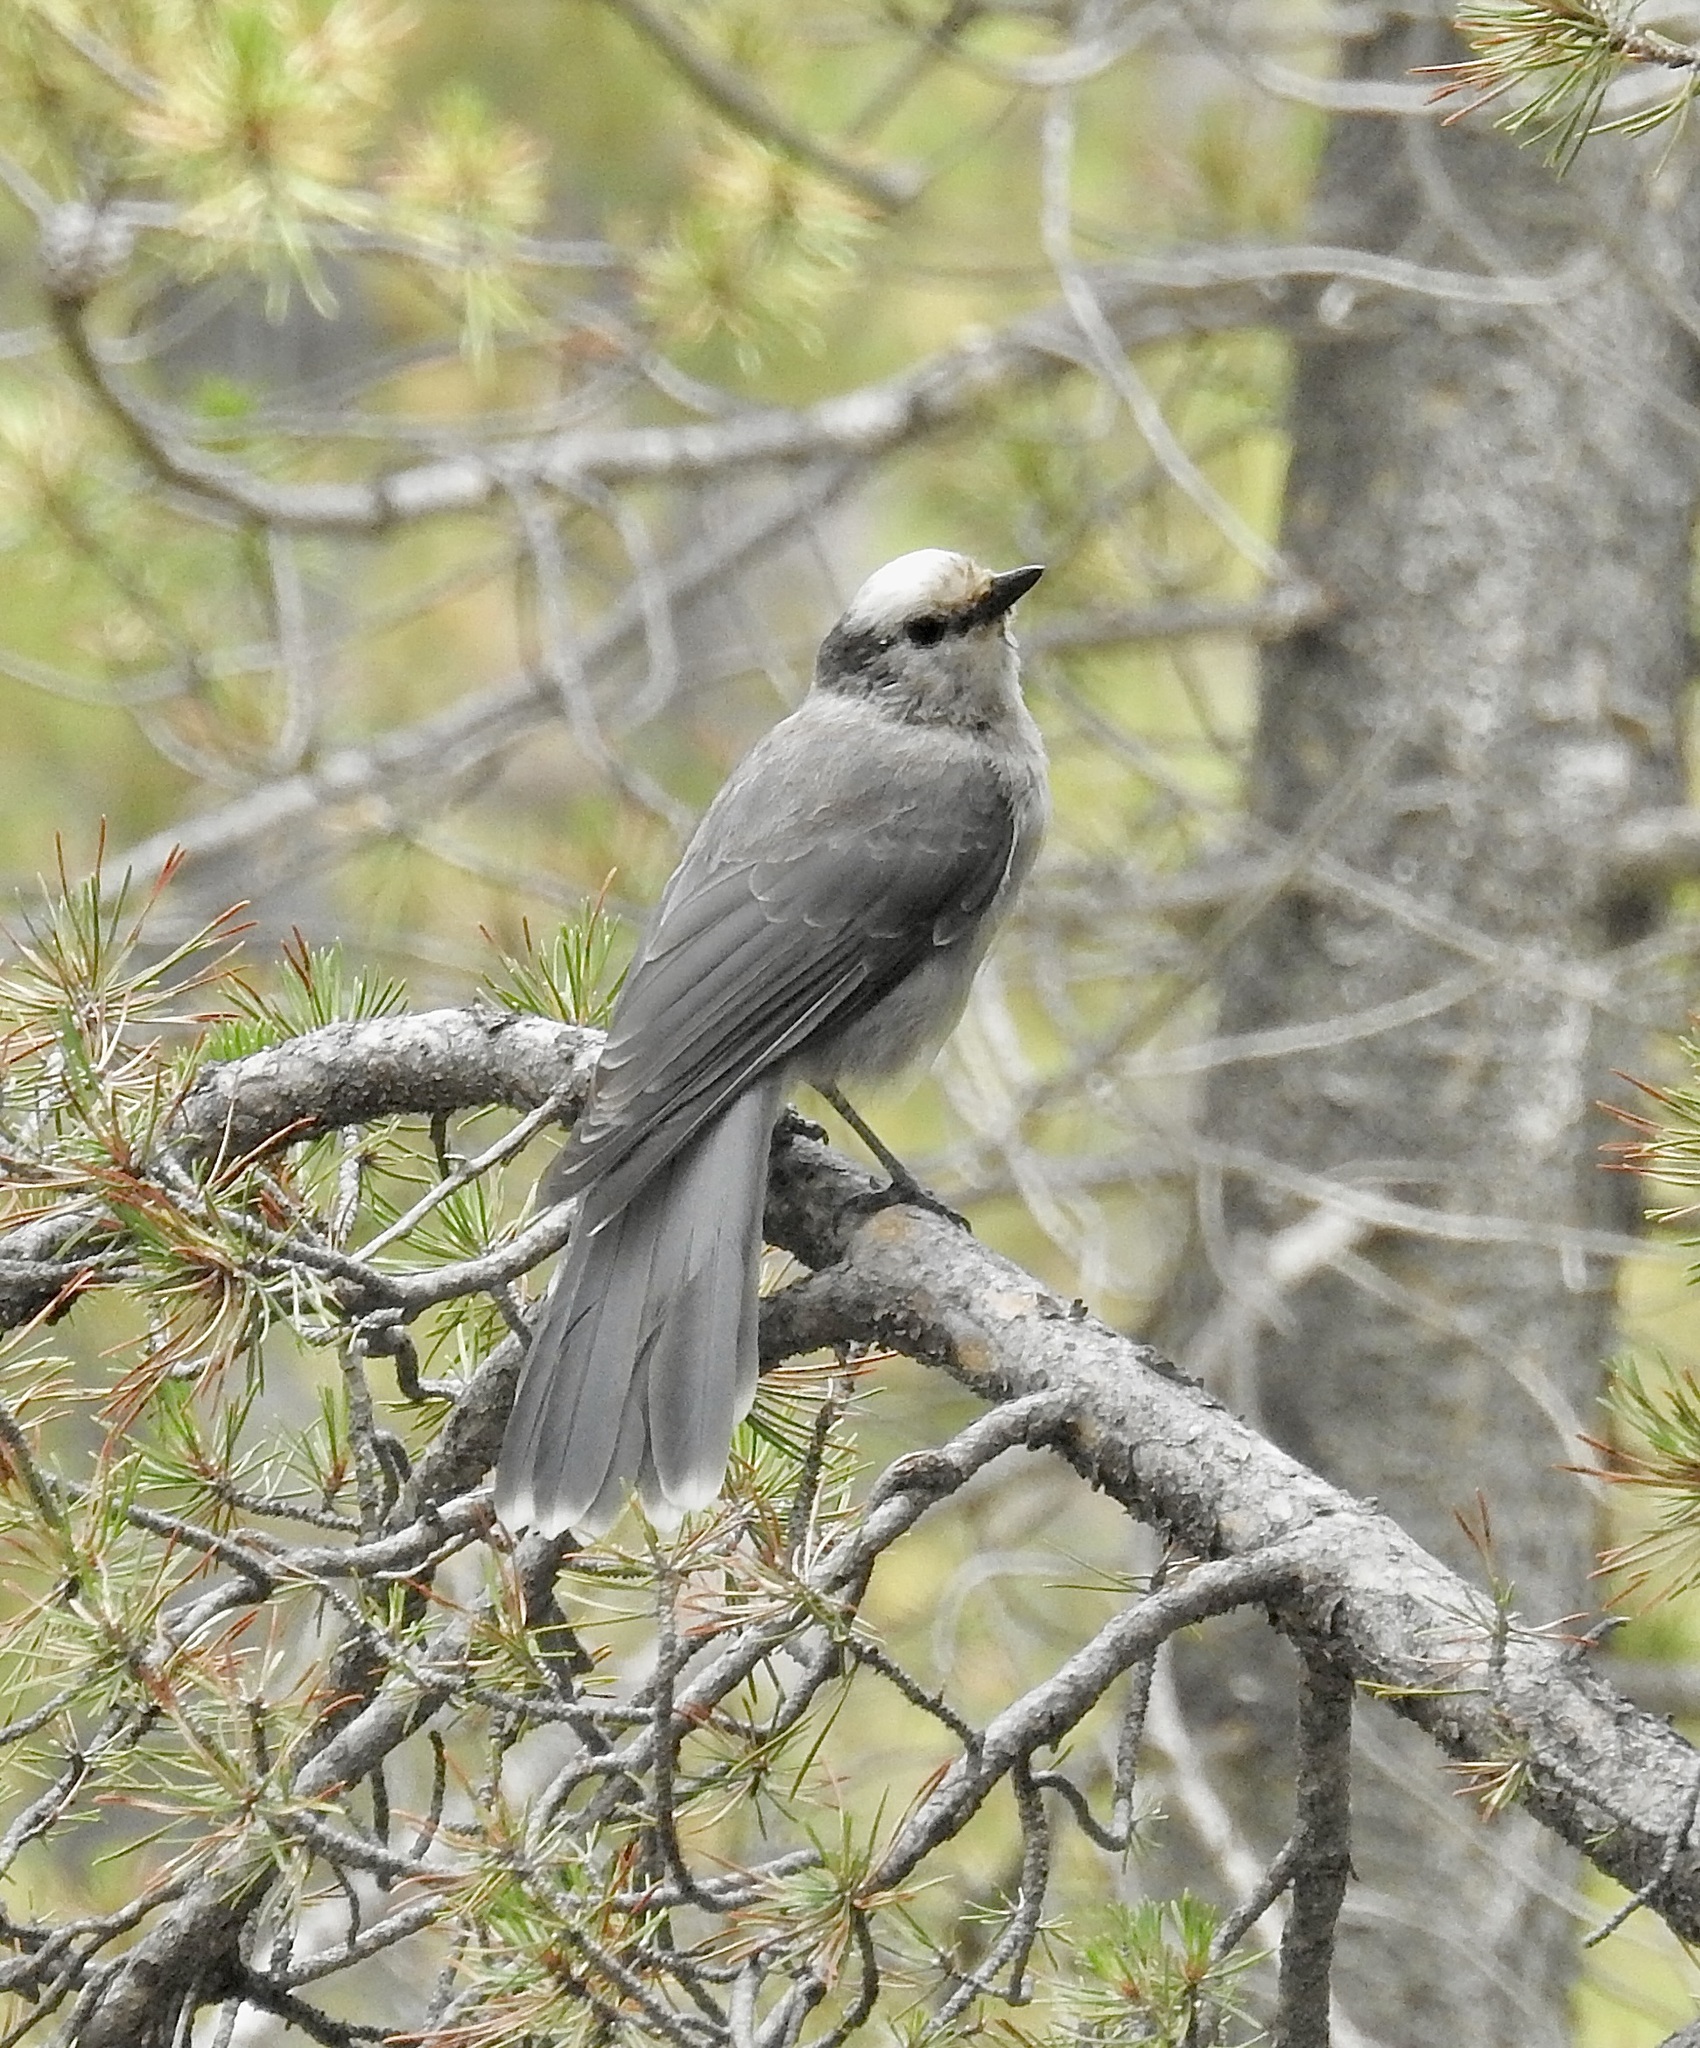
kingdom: Animalia
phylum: Chordata
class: Aves
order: Passeriformes
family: Corvidae
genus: Perisoreus
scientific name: Perisoreus canadensis
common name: Gray jay
